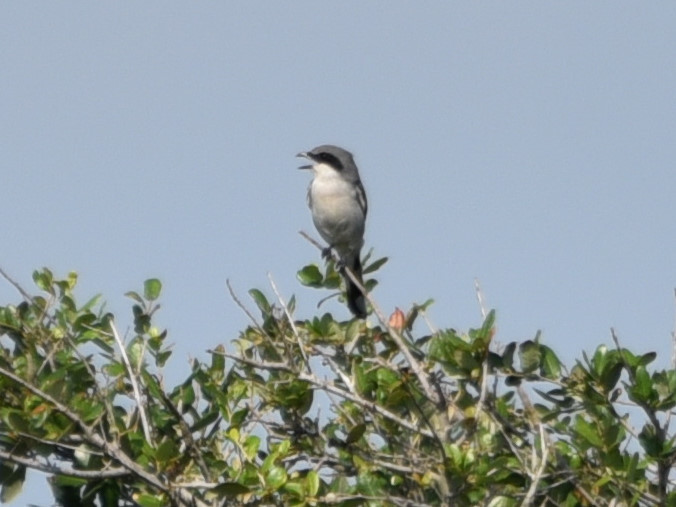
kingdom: Animalia
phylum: Chordata
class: Aves
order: Passeriformes
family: Laniidae
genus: Lanius
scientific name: Lanius ludovicianus
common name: Loggerhead shrike
